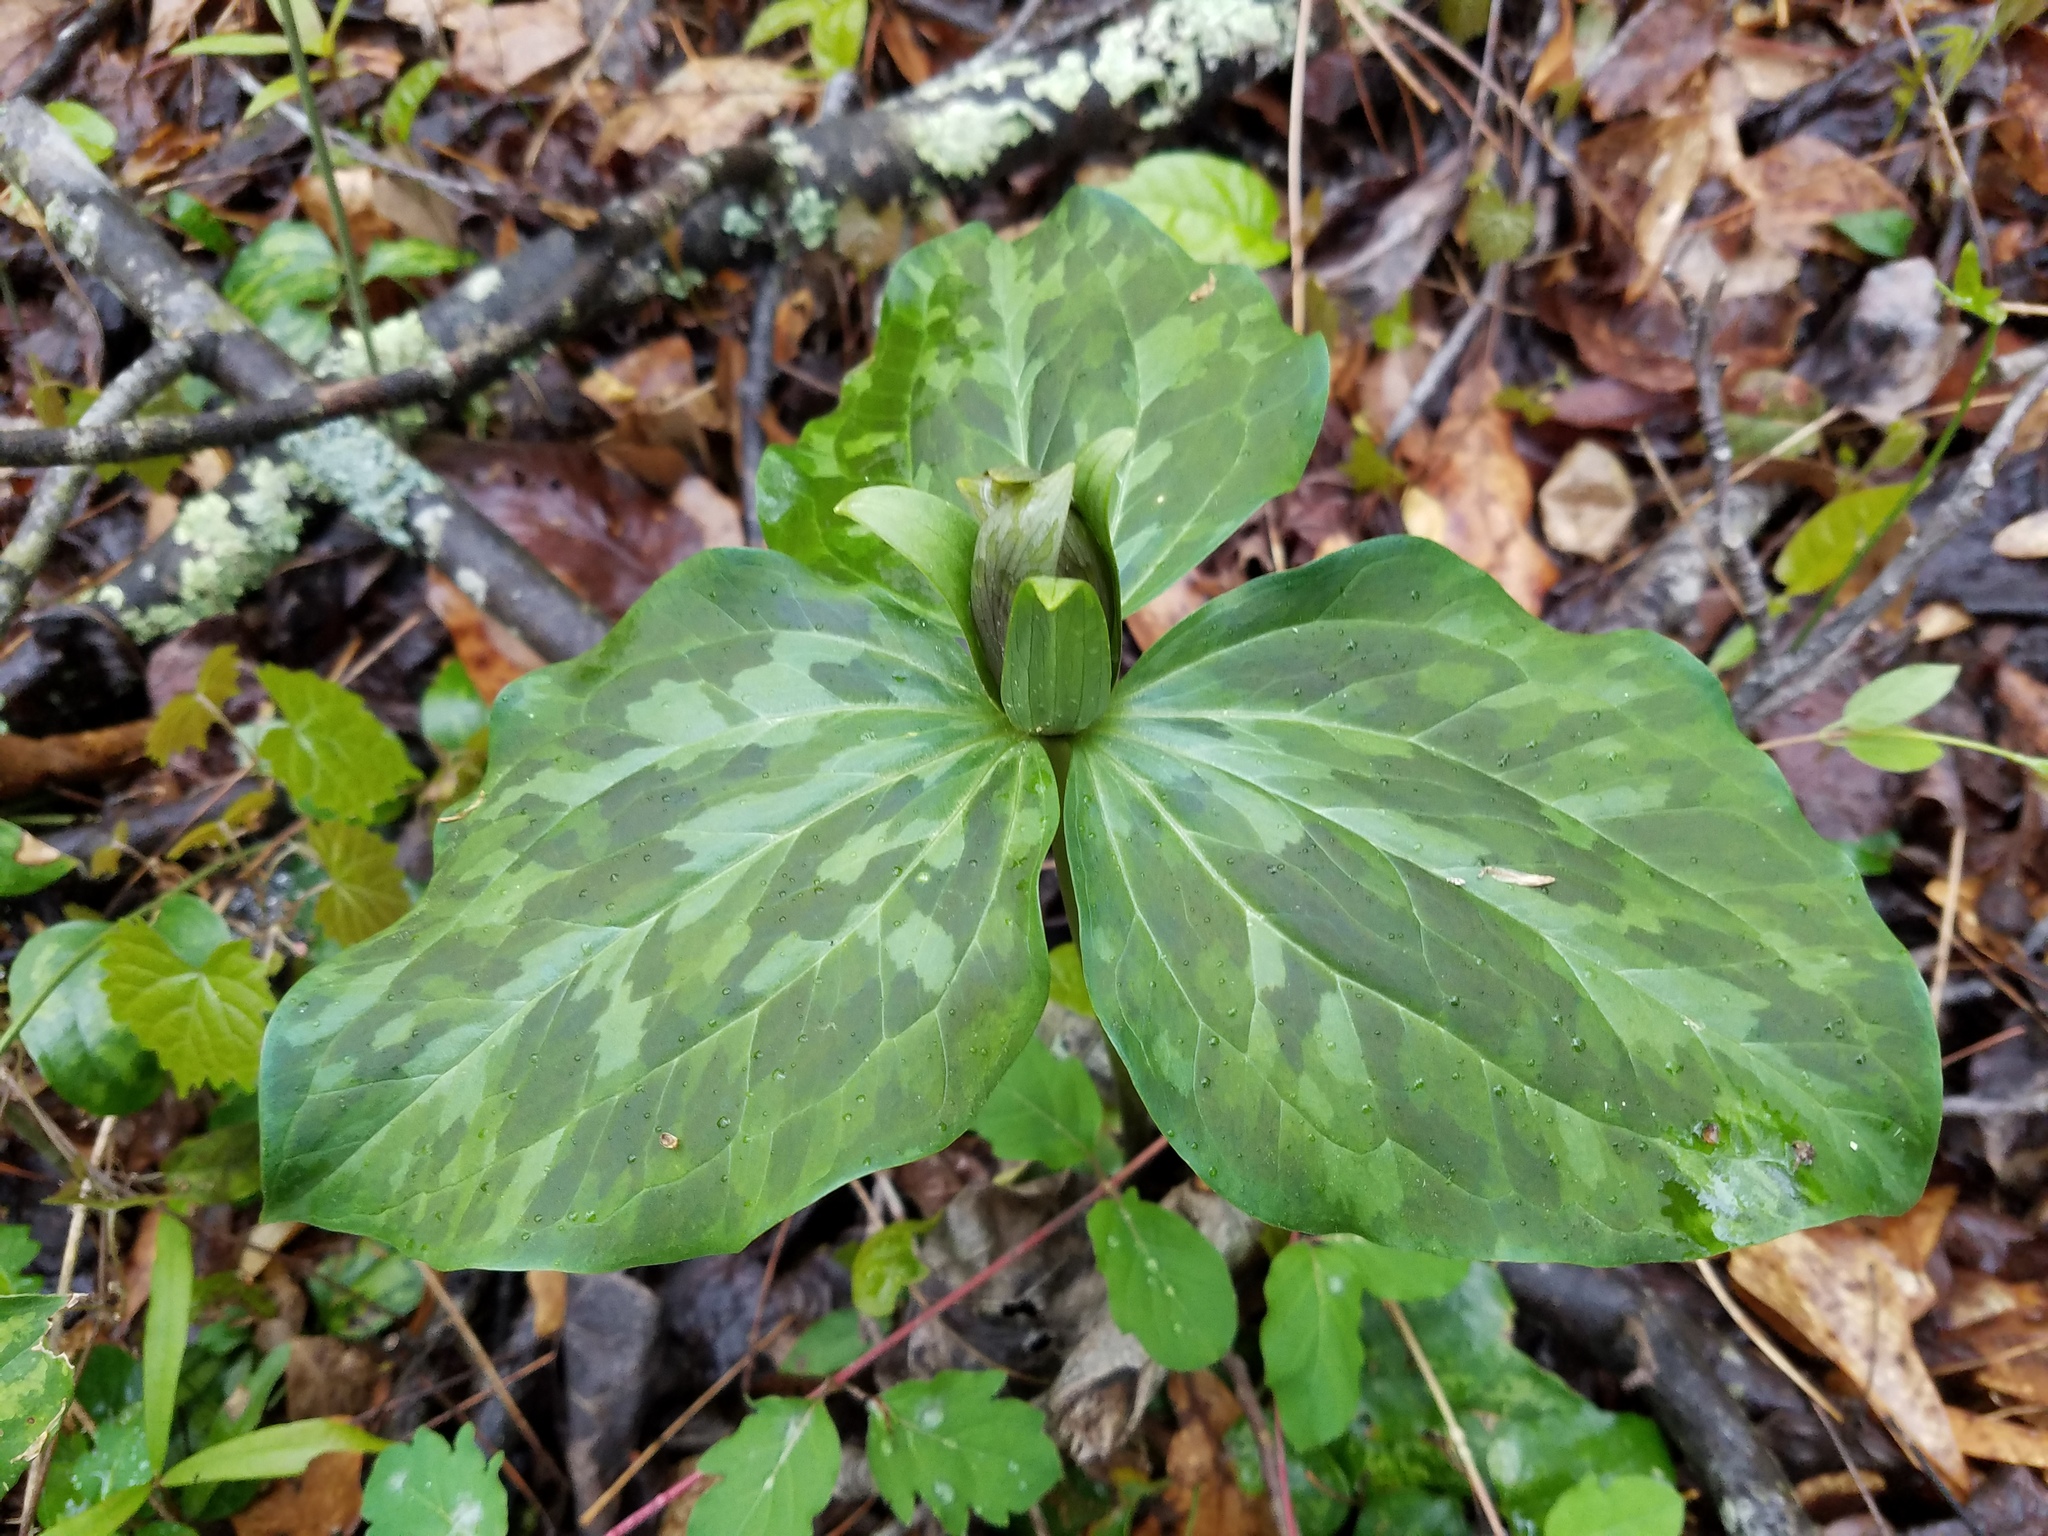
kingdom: Plantae
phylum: Tracheophyta
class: Liliopsida
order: Liliales
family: Melanthiaceae
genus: Trillium
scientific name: Trillium cuneatum
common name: Cuneate trillium
